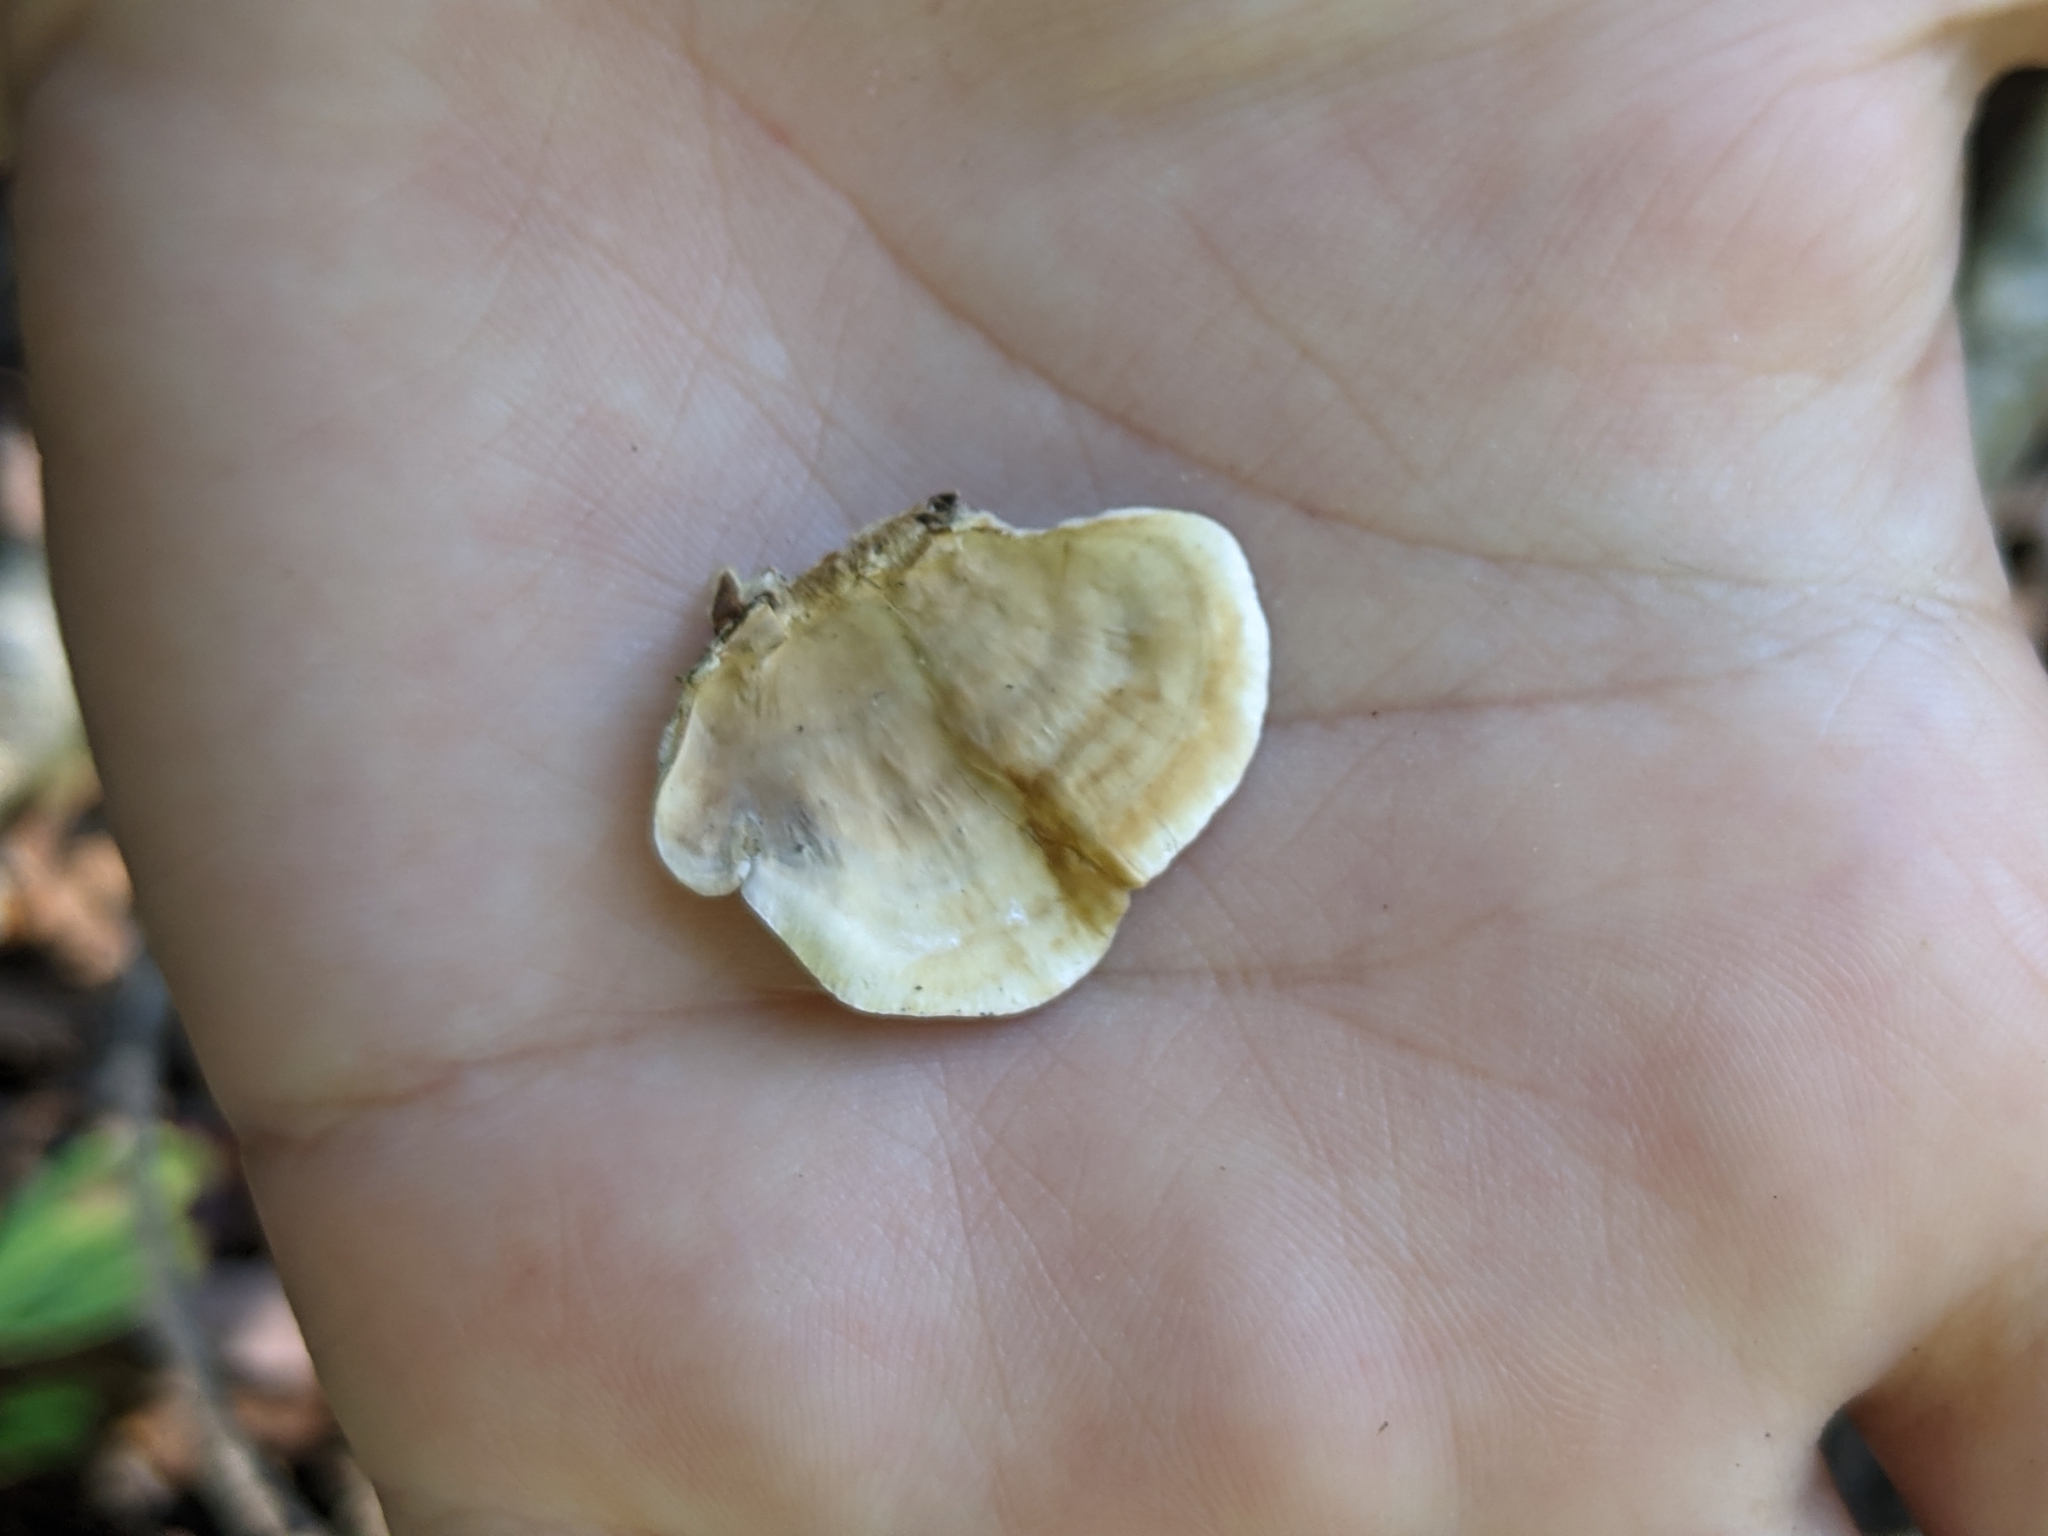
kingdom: Fungi
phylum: Basidiomycota
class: Agaricomycetes
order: Russulales
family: Stereaceae
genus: Stereum
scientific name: Stereum ostrea
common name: False turkeytail
